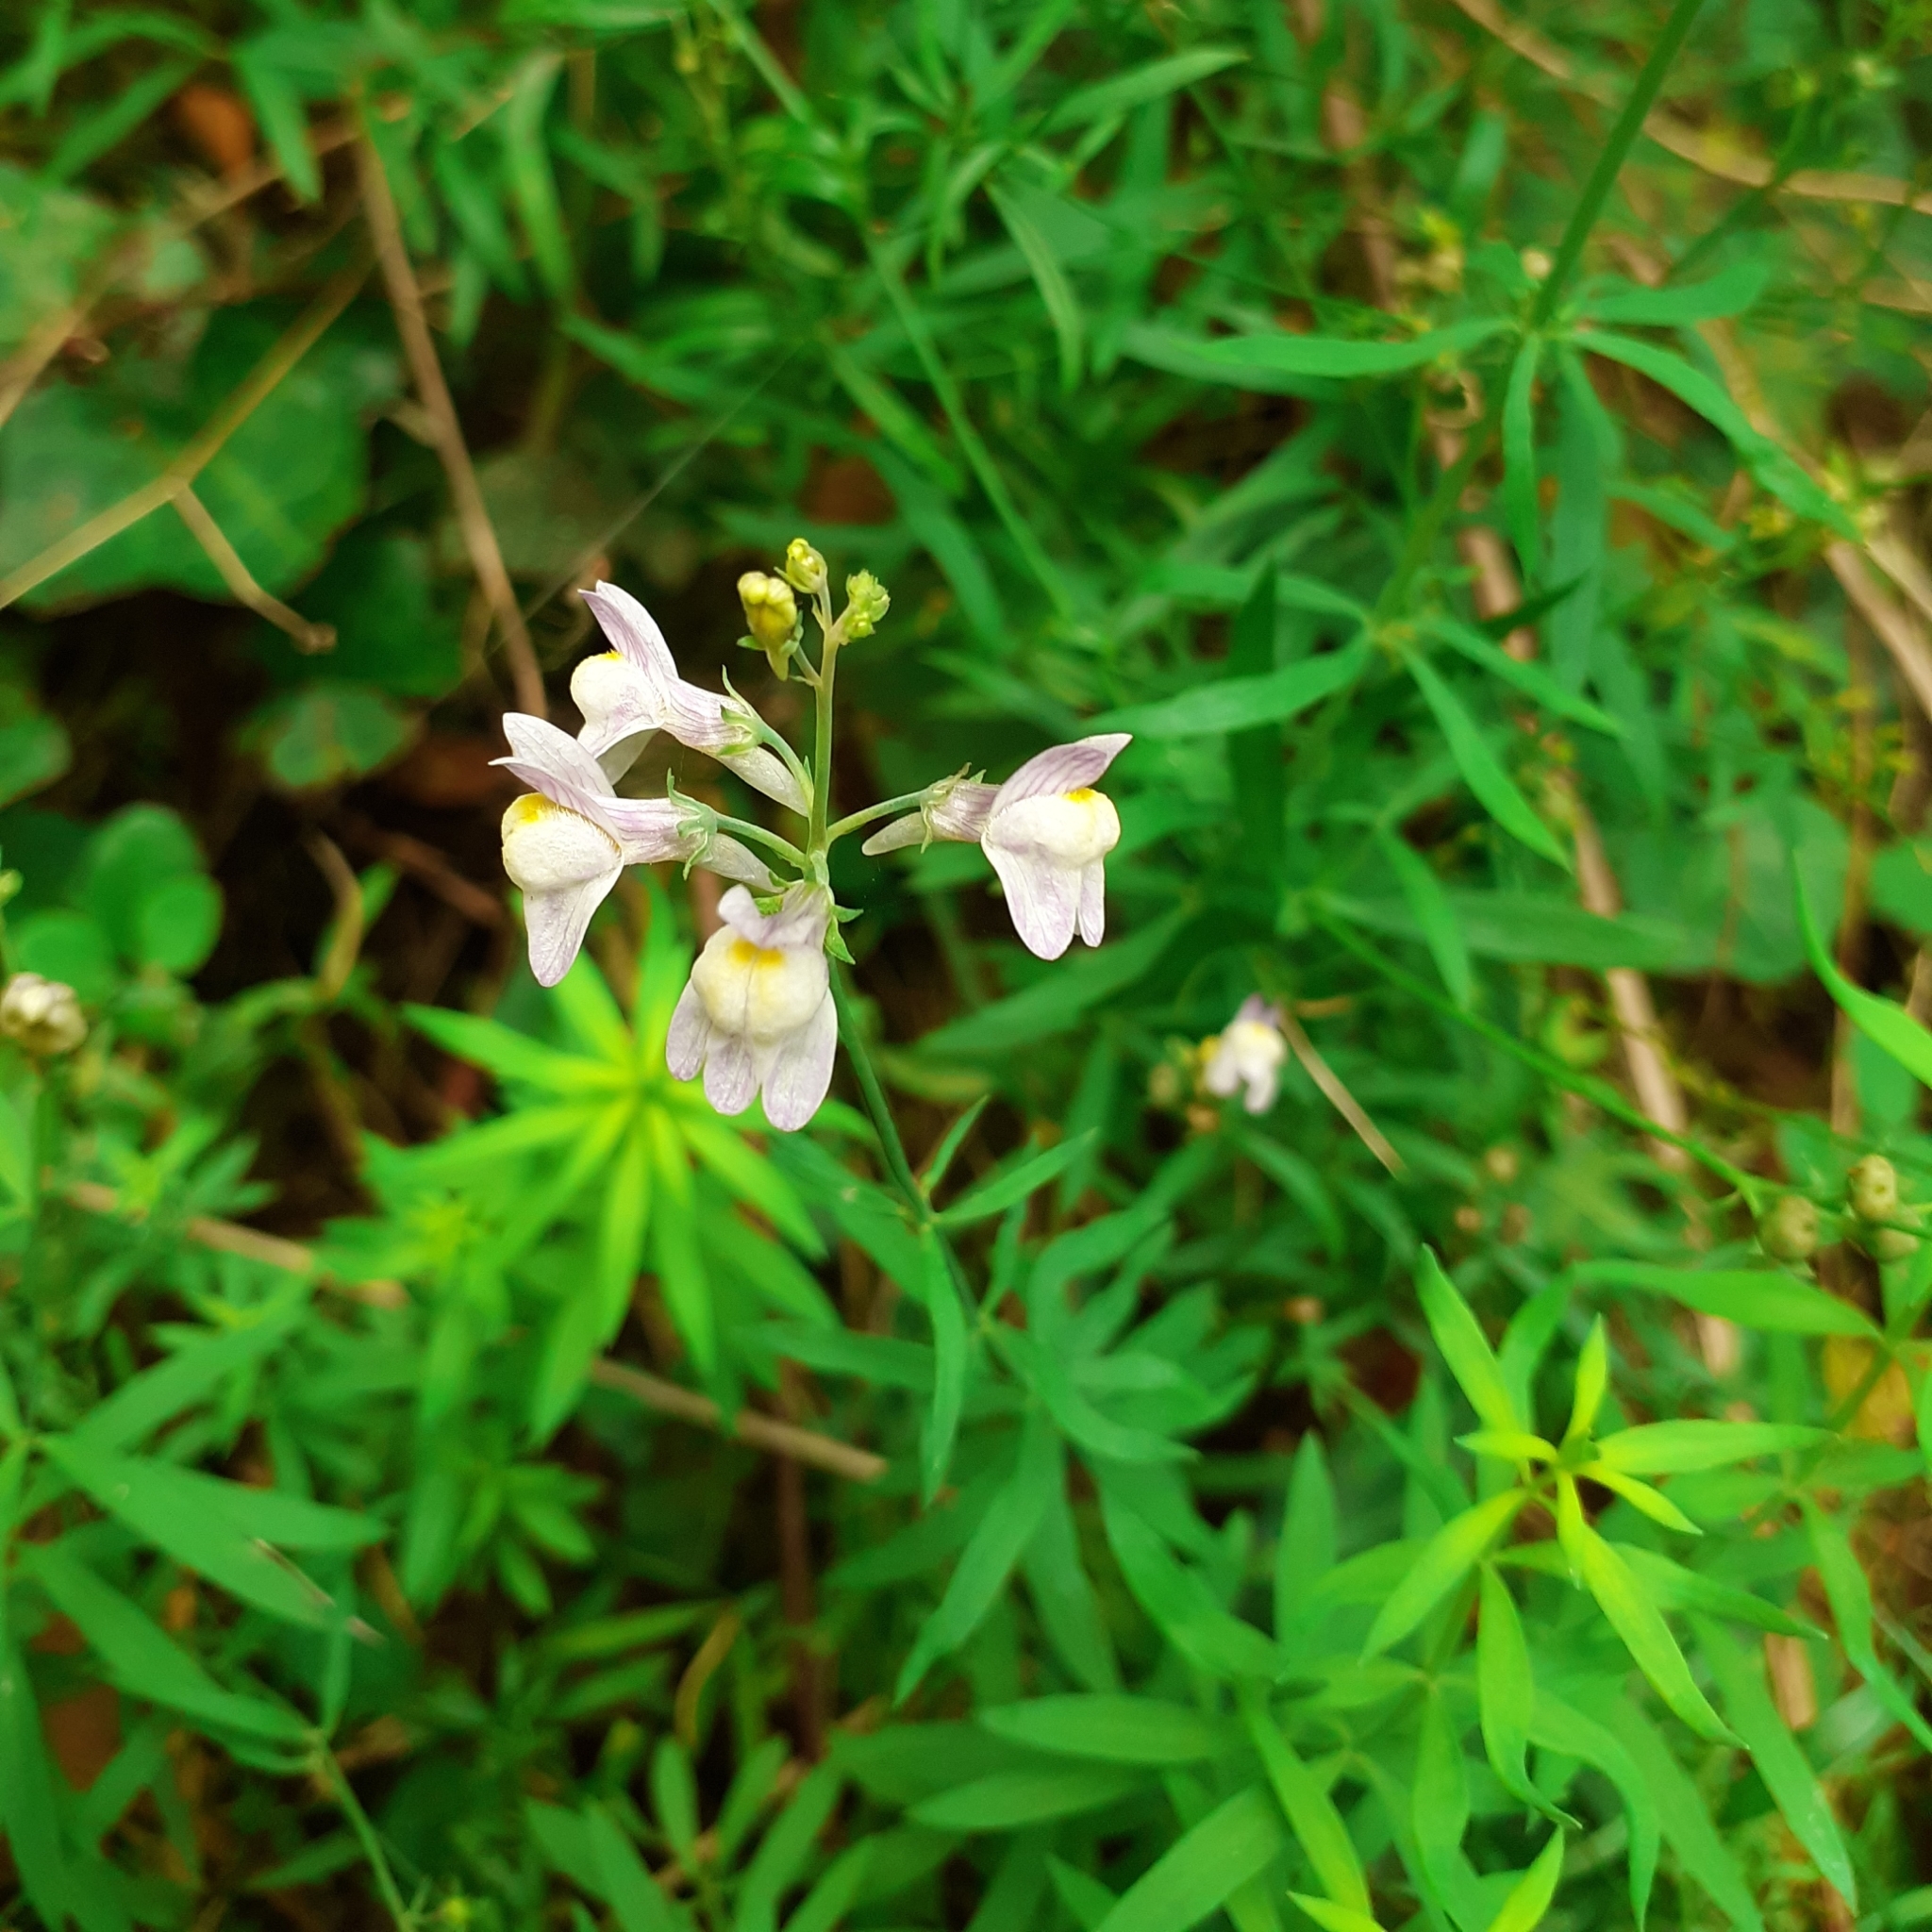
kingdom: Plantae
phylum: Tracheophyta
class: Magnoliopsida
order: Lamiales
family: Plantaginaceae
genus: Linaria
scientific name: Linaria repens
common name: Pale toadflax
